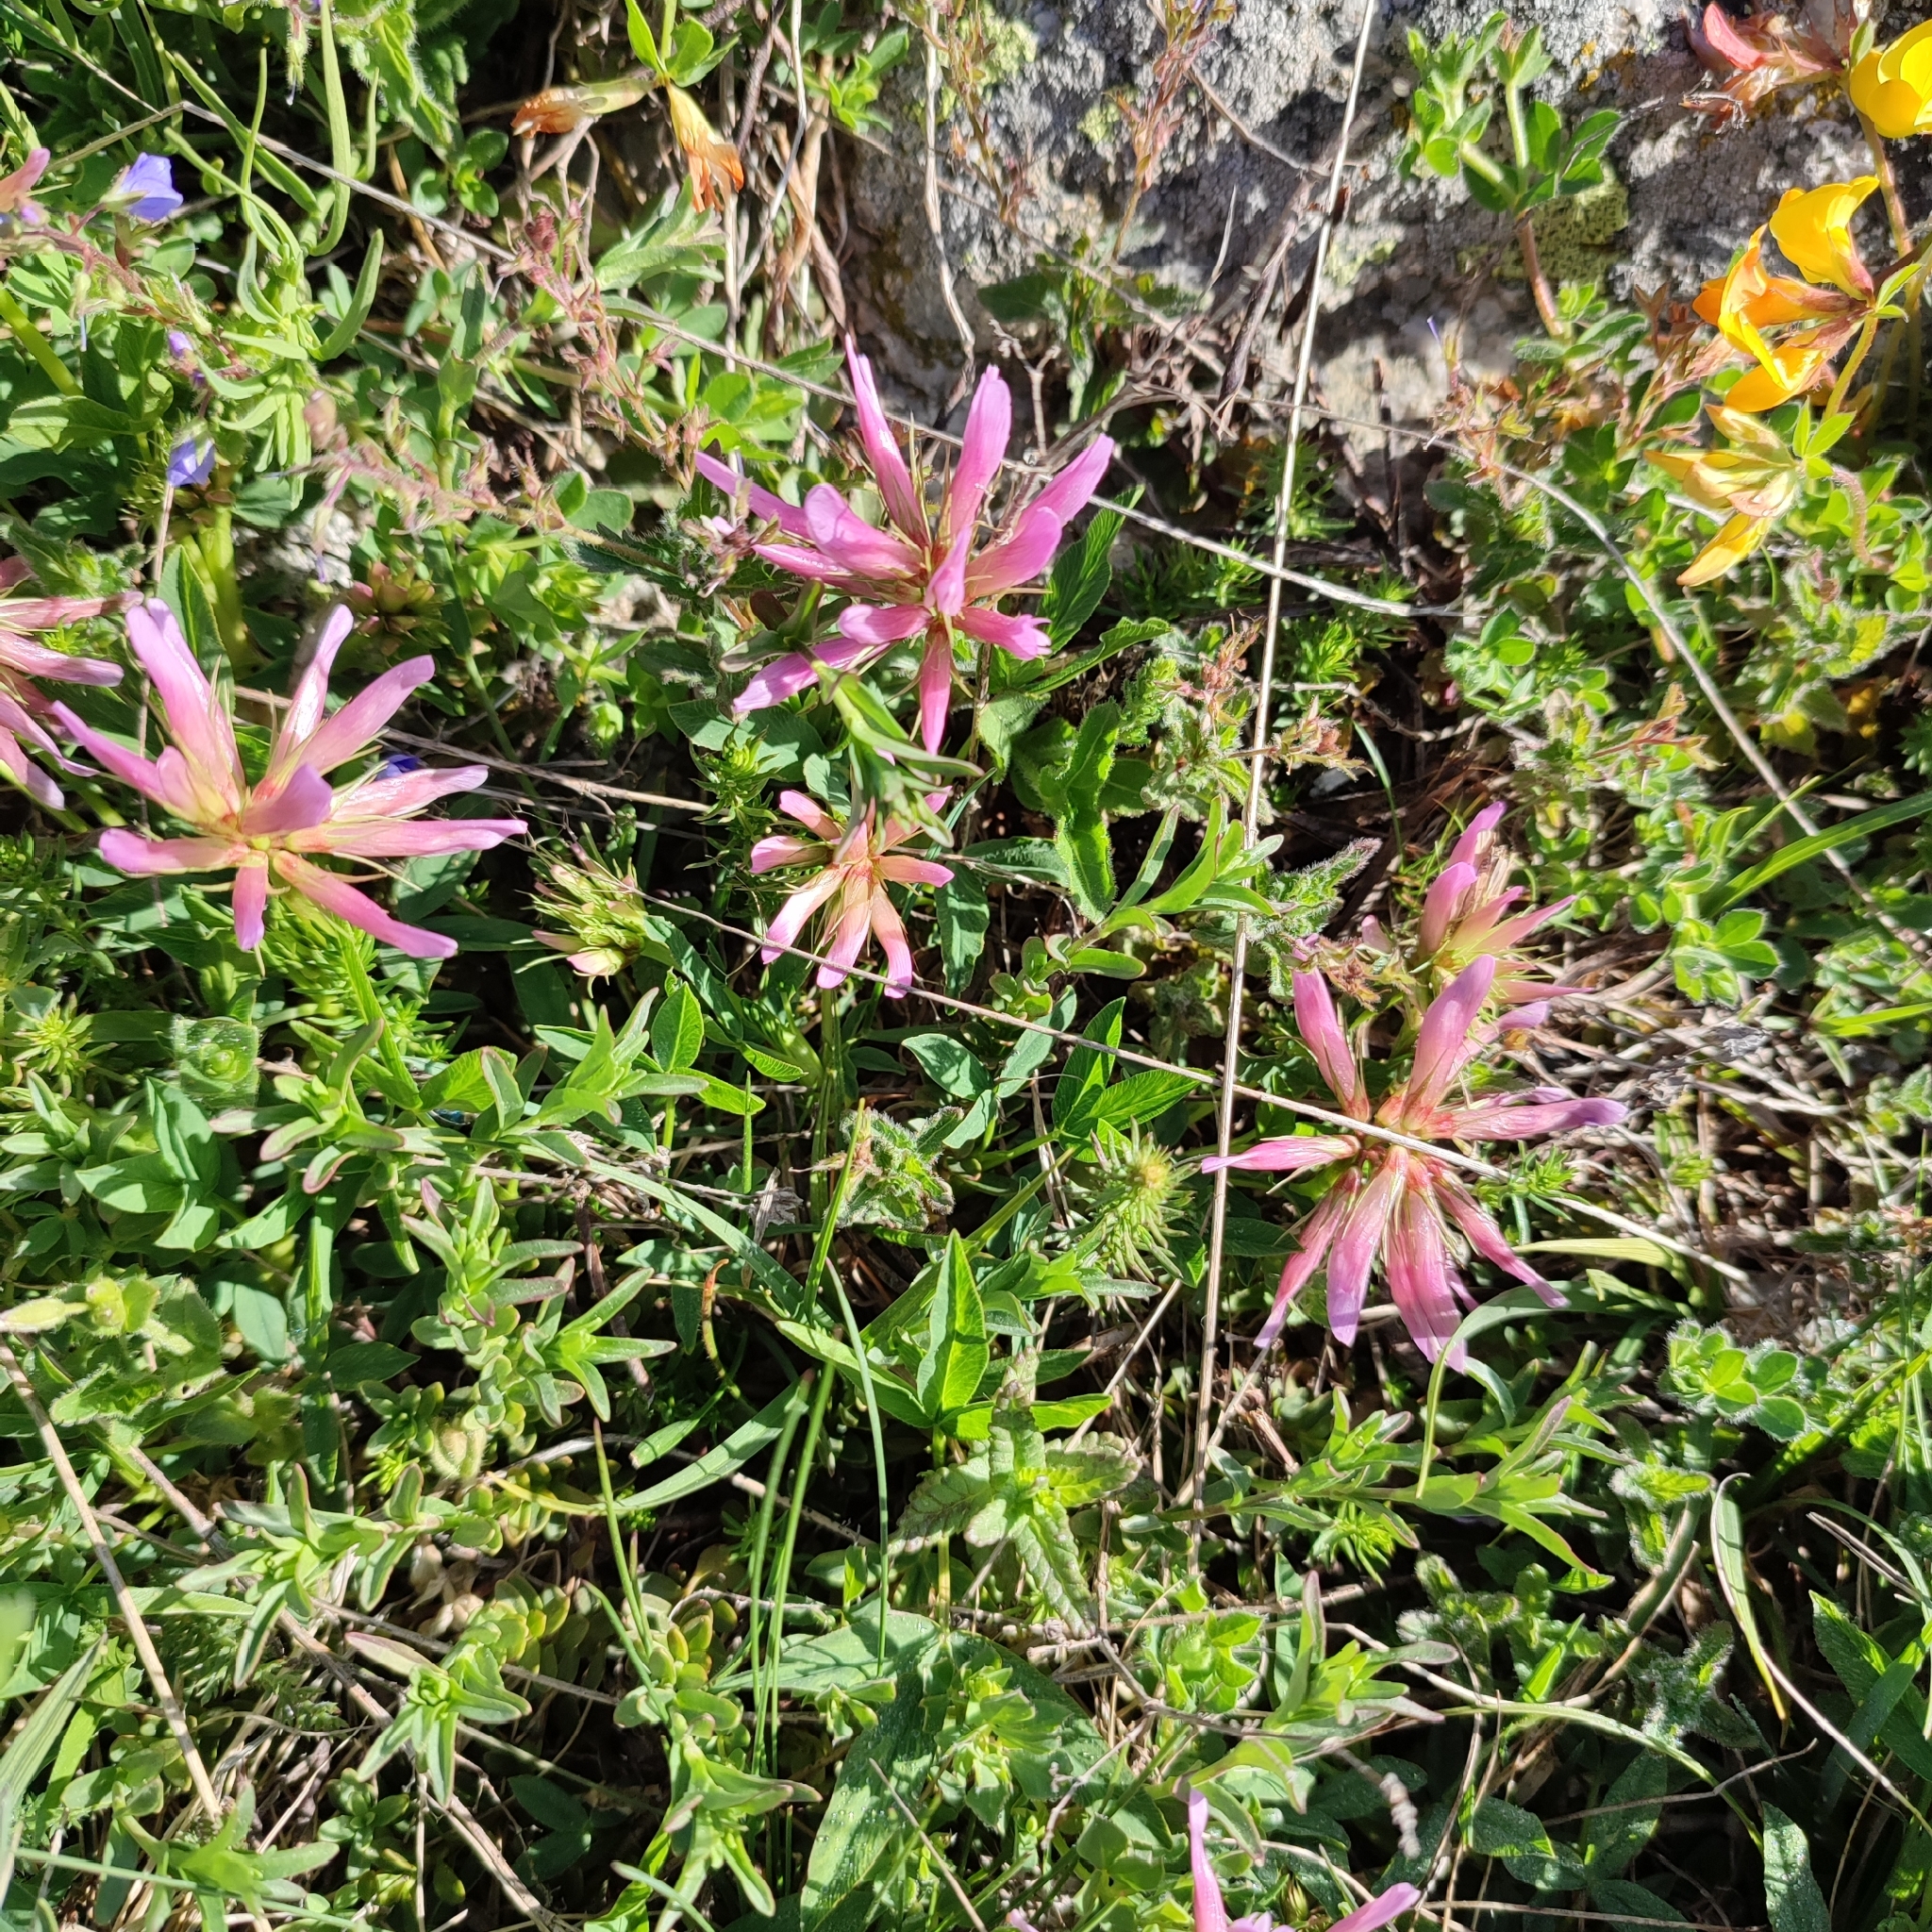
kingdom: Plantae
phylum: Tracheophyta
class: Magnoliopsida
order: Fabales
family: Fabaceae
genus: Trifolium
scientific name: Trifolium alpinum
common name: Alpine clover
